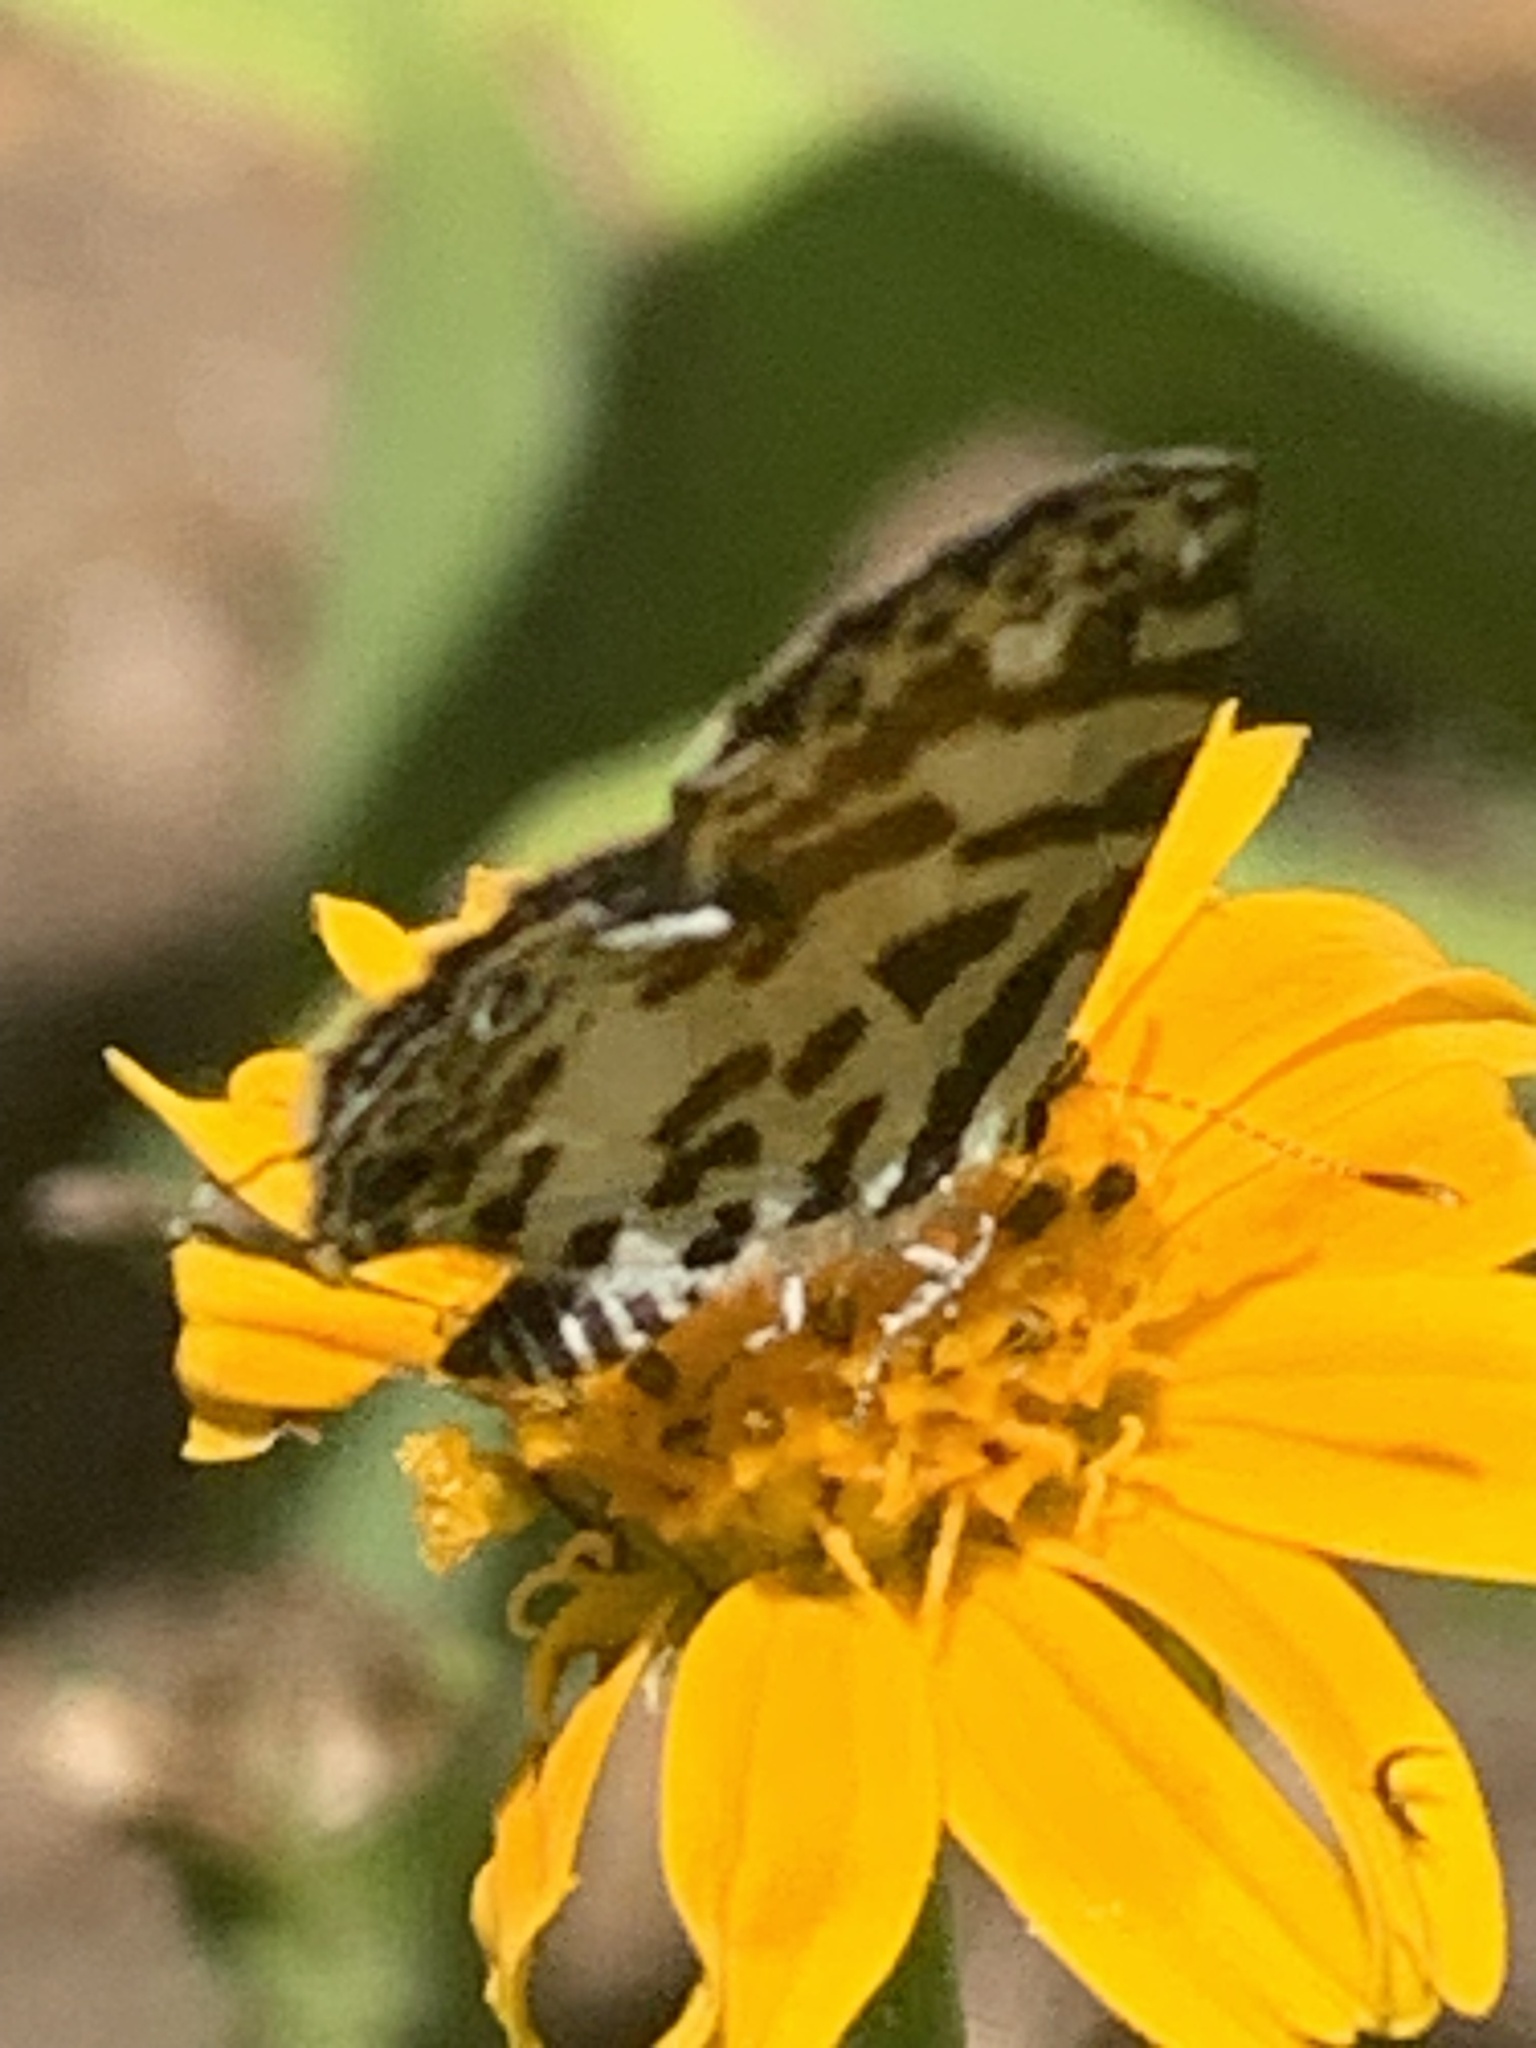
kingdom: Animalia
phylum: Arthropoda
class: Insecta
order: Lepidoptera
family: Lycaenidae
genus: Castalius
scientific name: Castalius melaena
